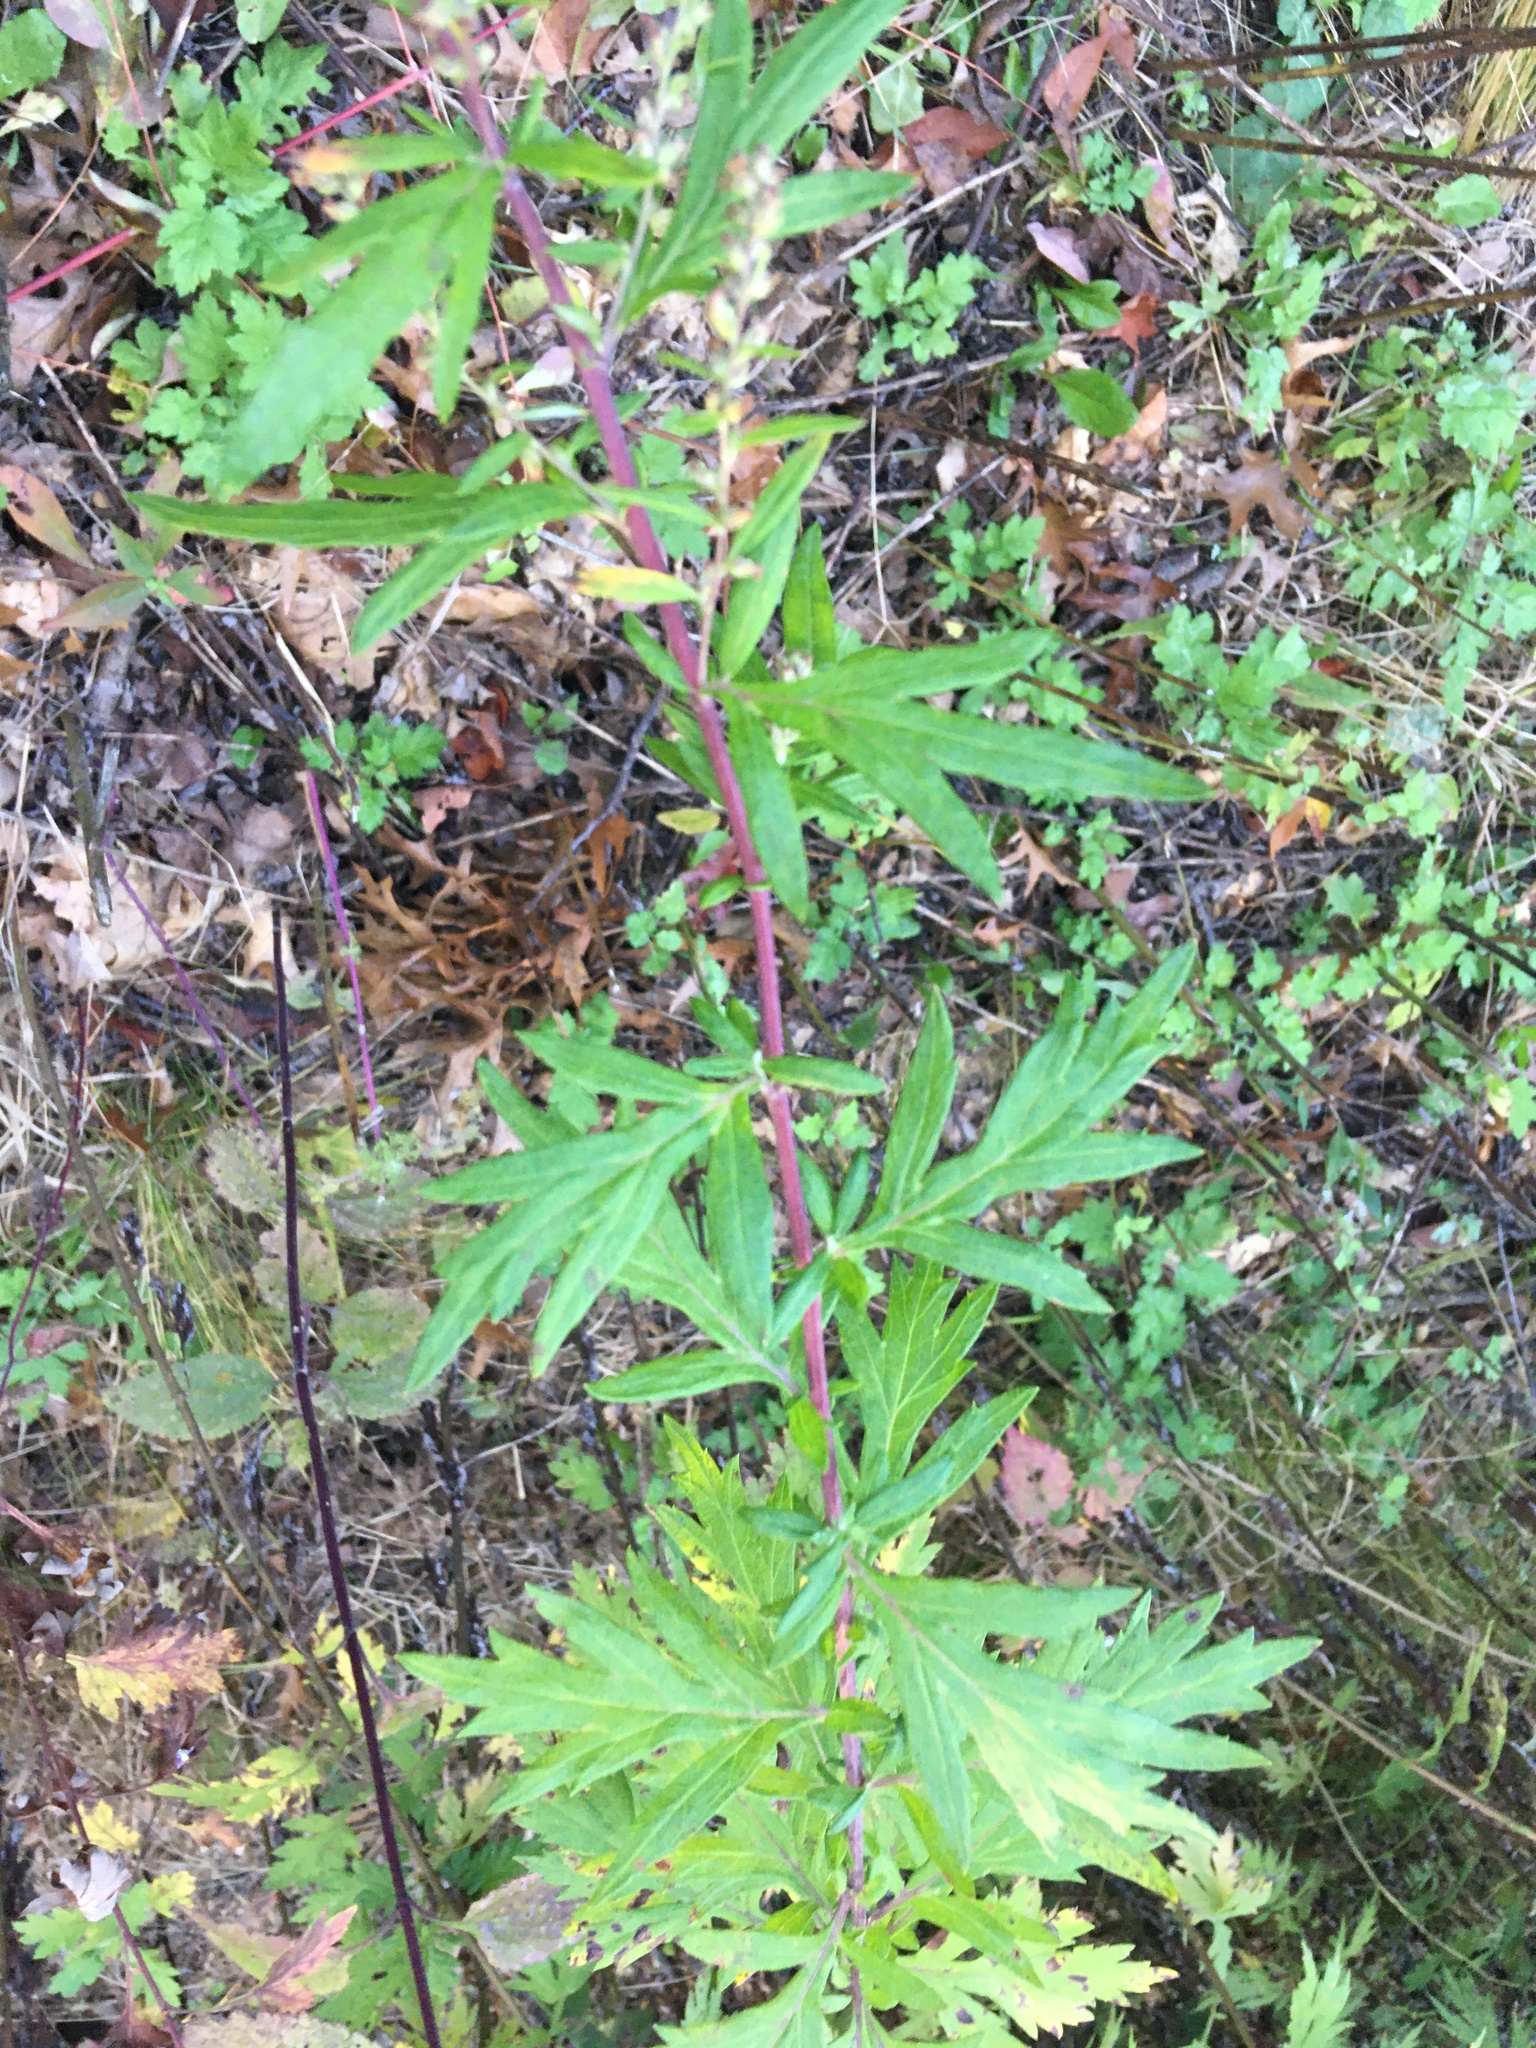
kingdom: Plantae
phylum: Tracheophyta
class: Magnoliopsida
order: Asterales
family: Asteraceae
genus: Artemisia
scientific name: Artemisia vulgaris
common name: Mugwort
